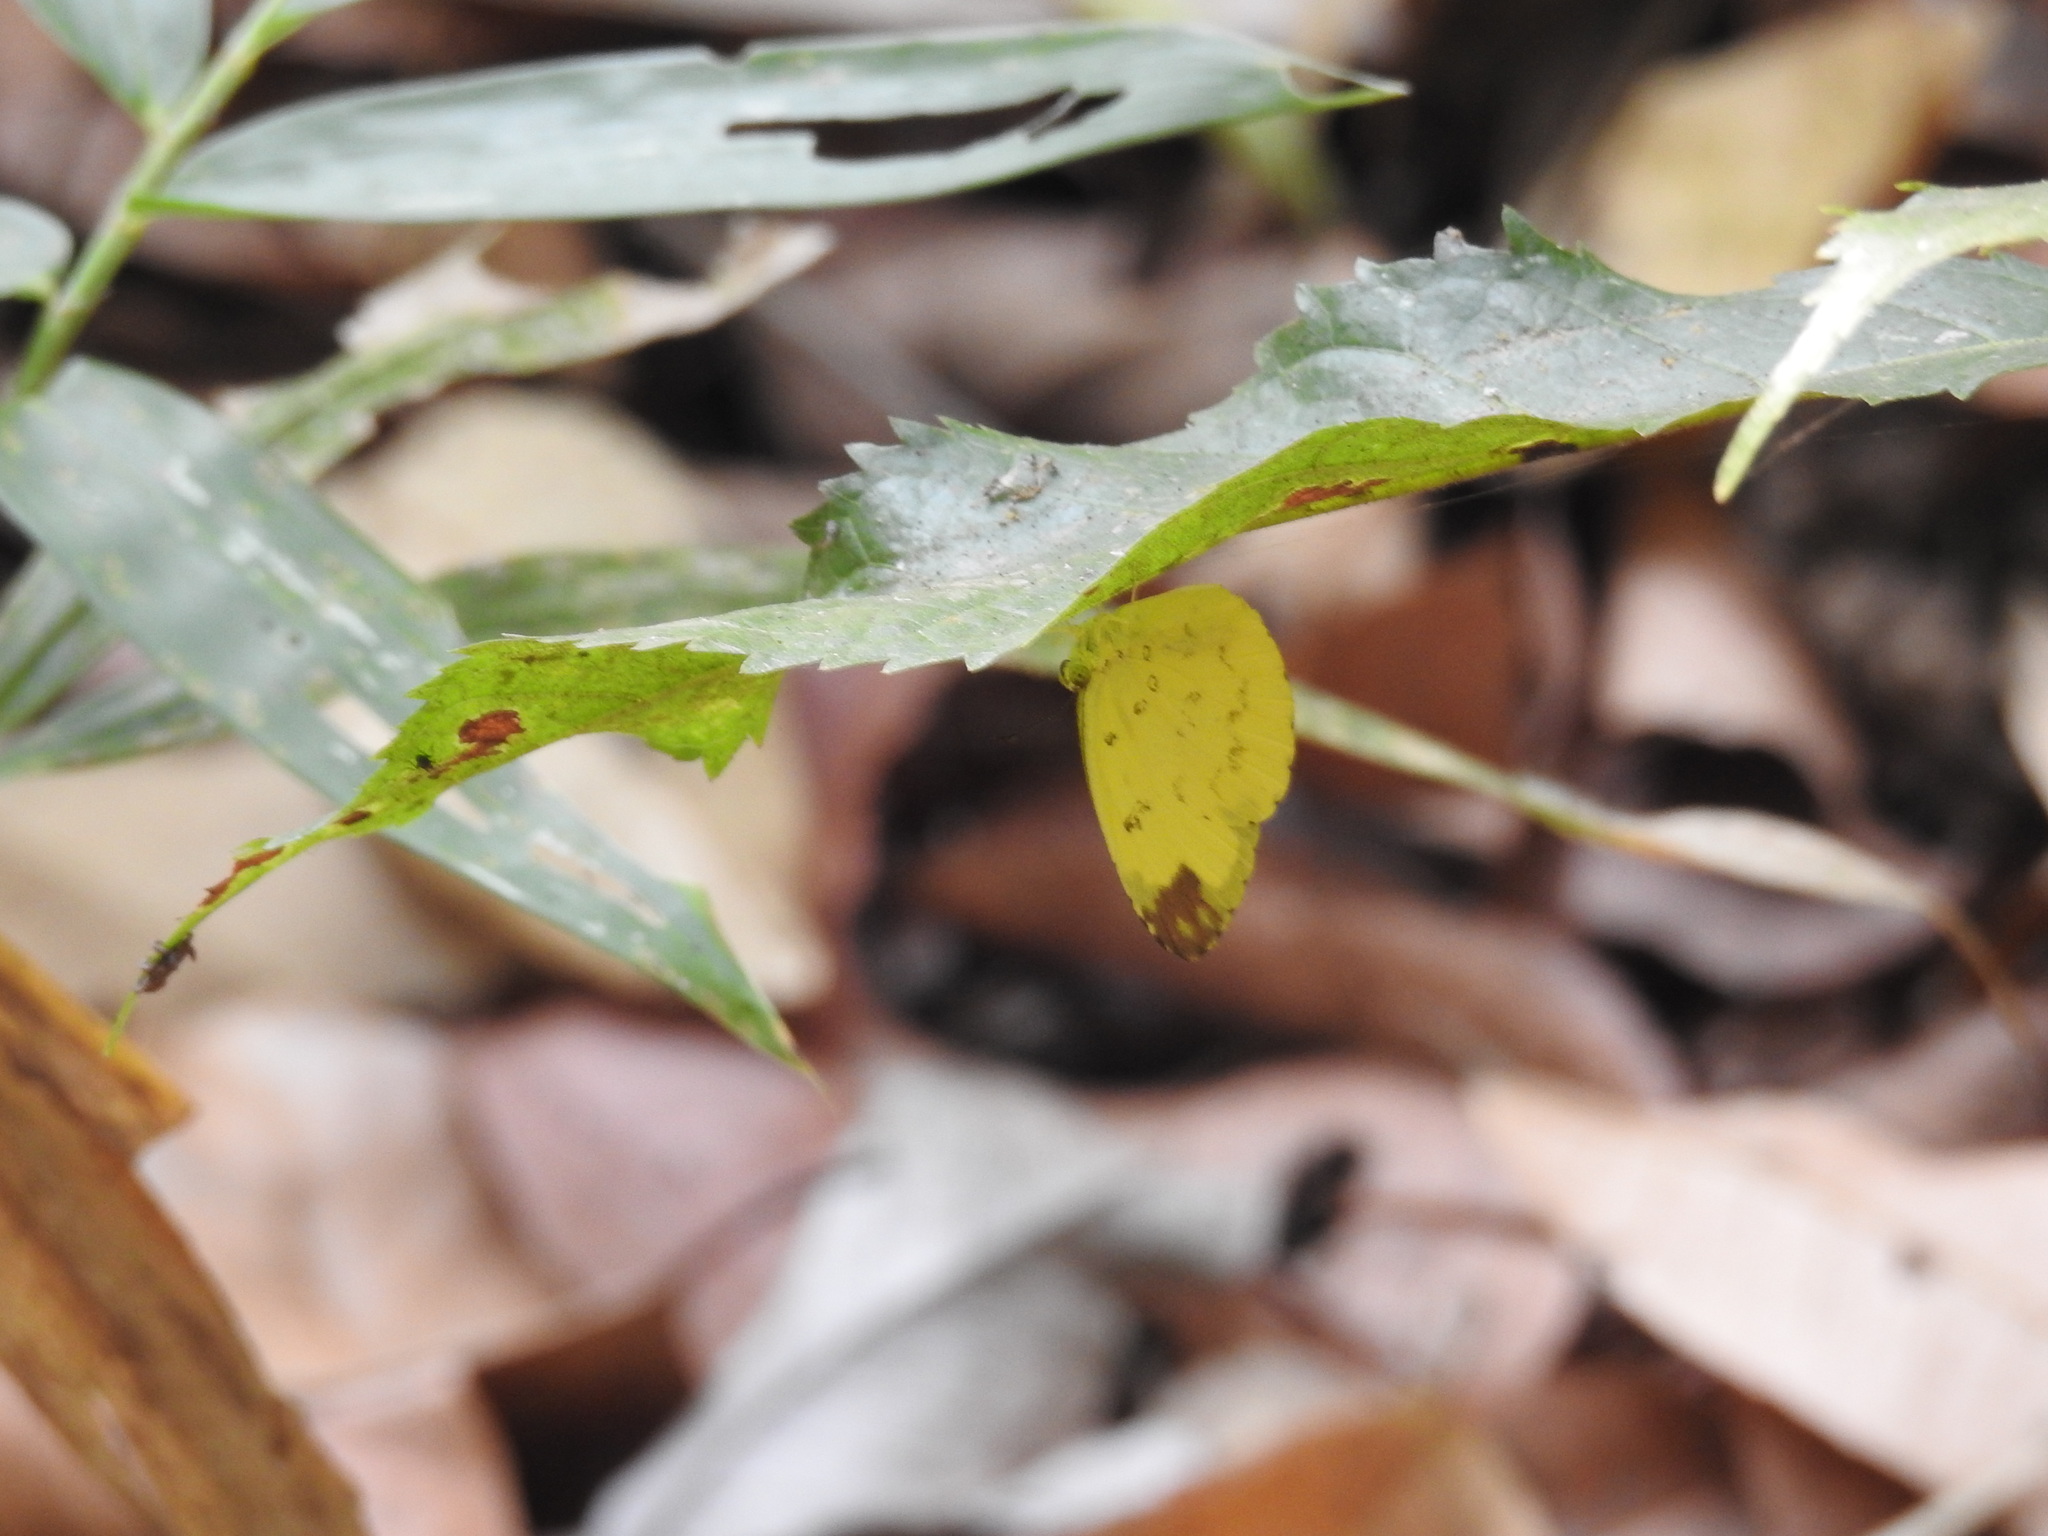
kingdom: Animalia
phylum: Arthropoda
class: Insecta
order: Lepidoptera
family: Pieridae
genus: Eurema
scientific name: Eurema hecabe
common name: Pale grass yellow
